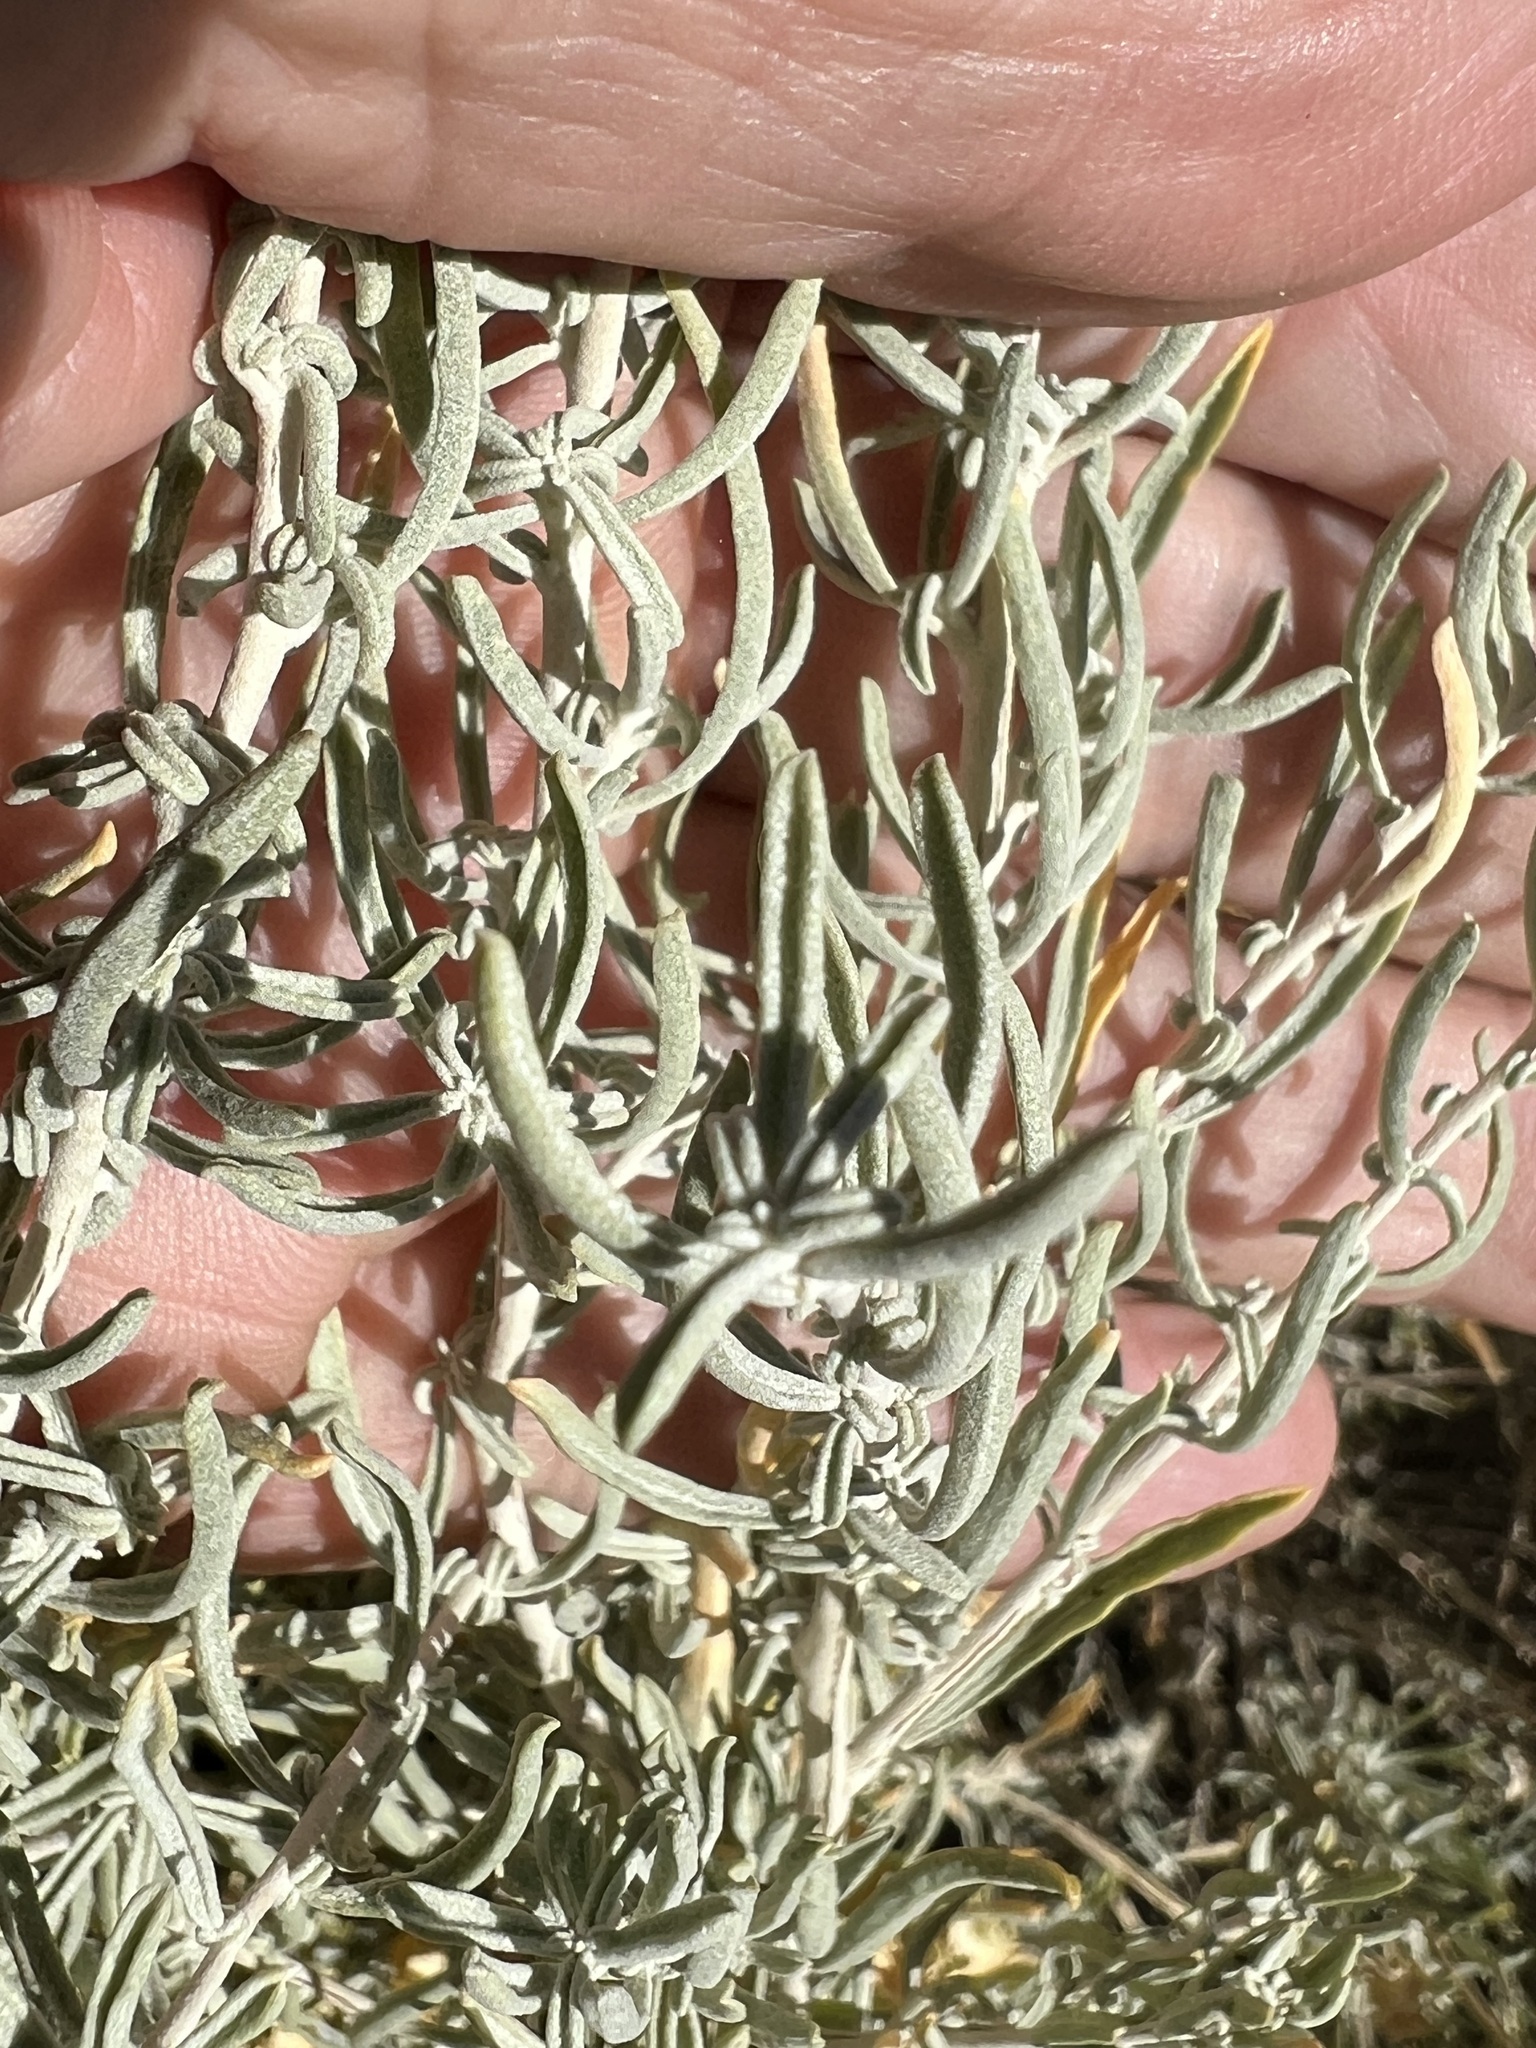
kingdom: Plantae
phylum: Tracheophyta
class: Magnoliopsida
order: Caryophyllales
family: Amaranthaceae
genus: Atriplex
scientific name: Atriplex canescens
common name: Four-wing saltbush
